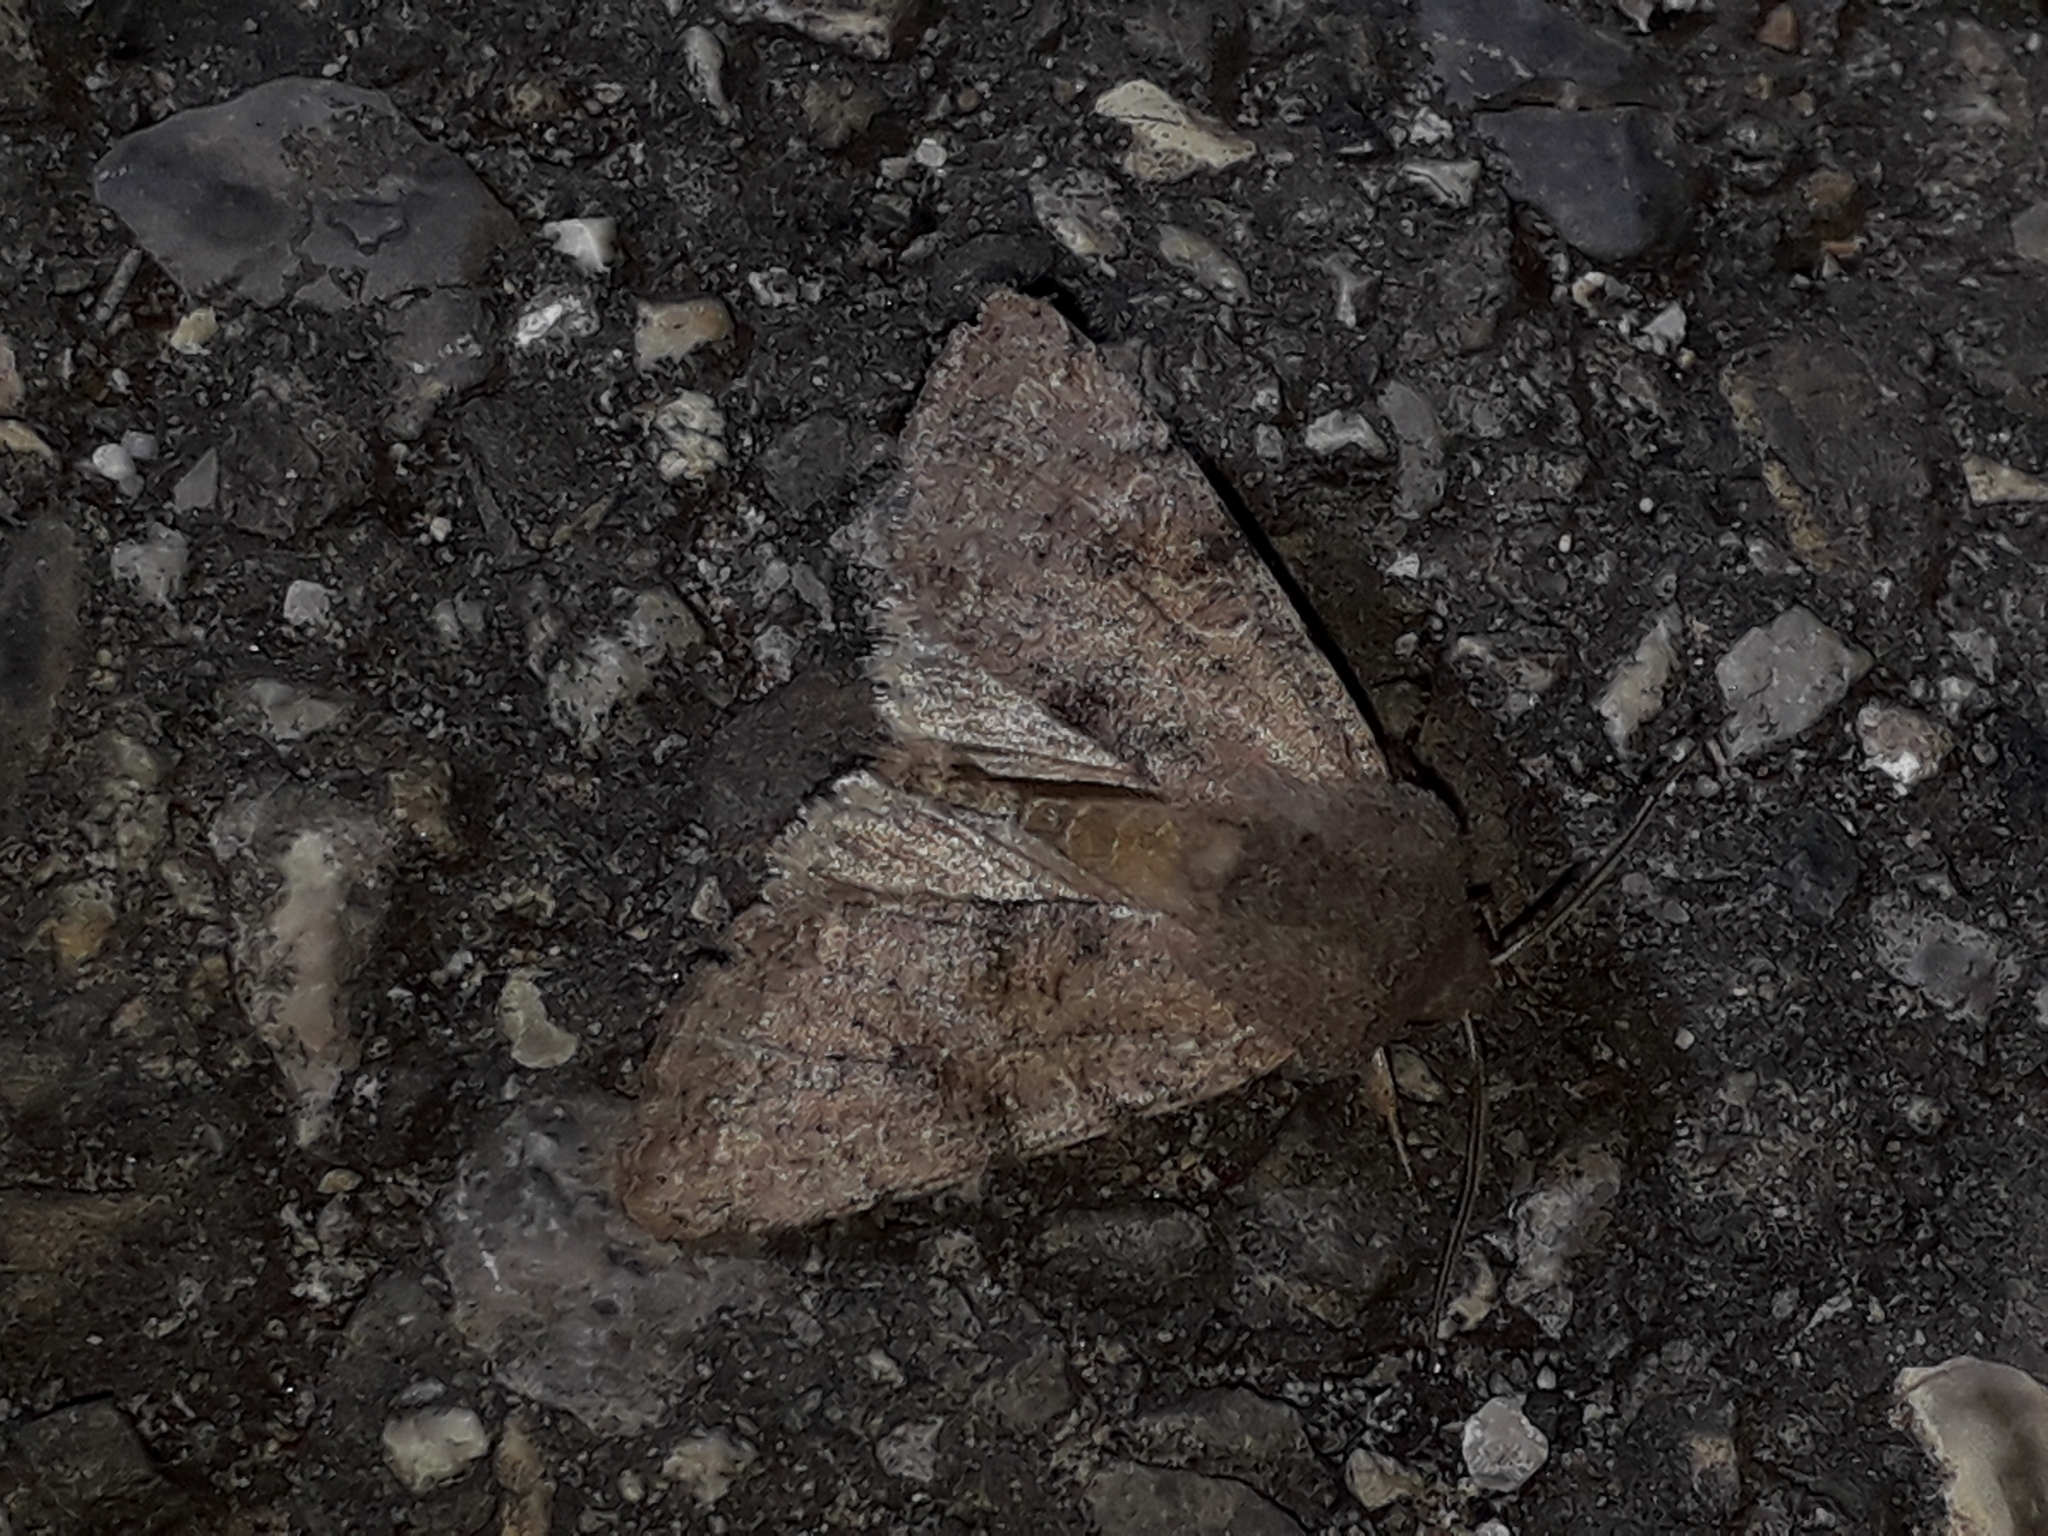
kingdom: Animalia
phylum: Arthropoda
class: Insecta
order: Lepidoptera
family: Noctuidae
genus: Orthosia
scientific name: Orthosia incerta
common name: Clouded drab
